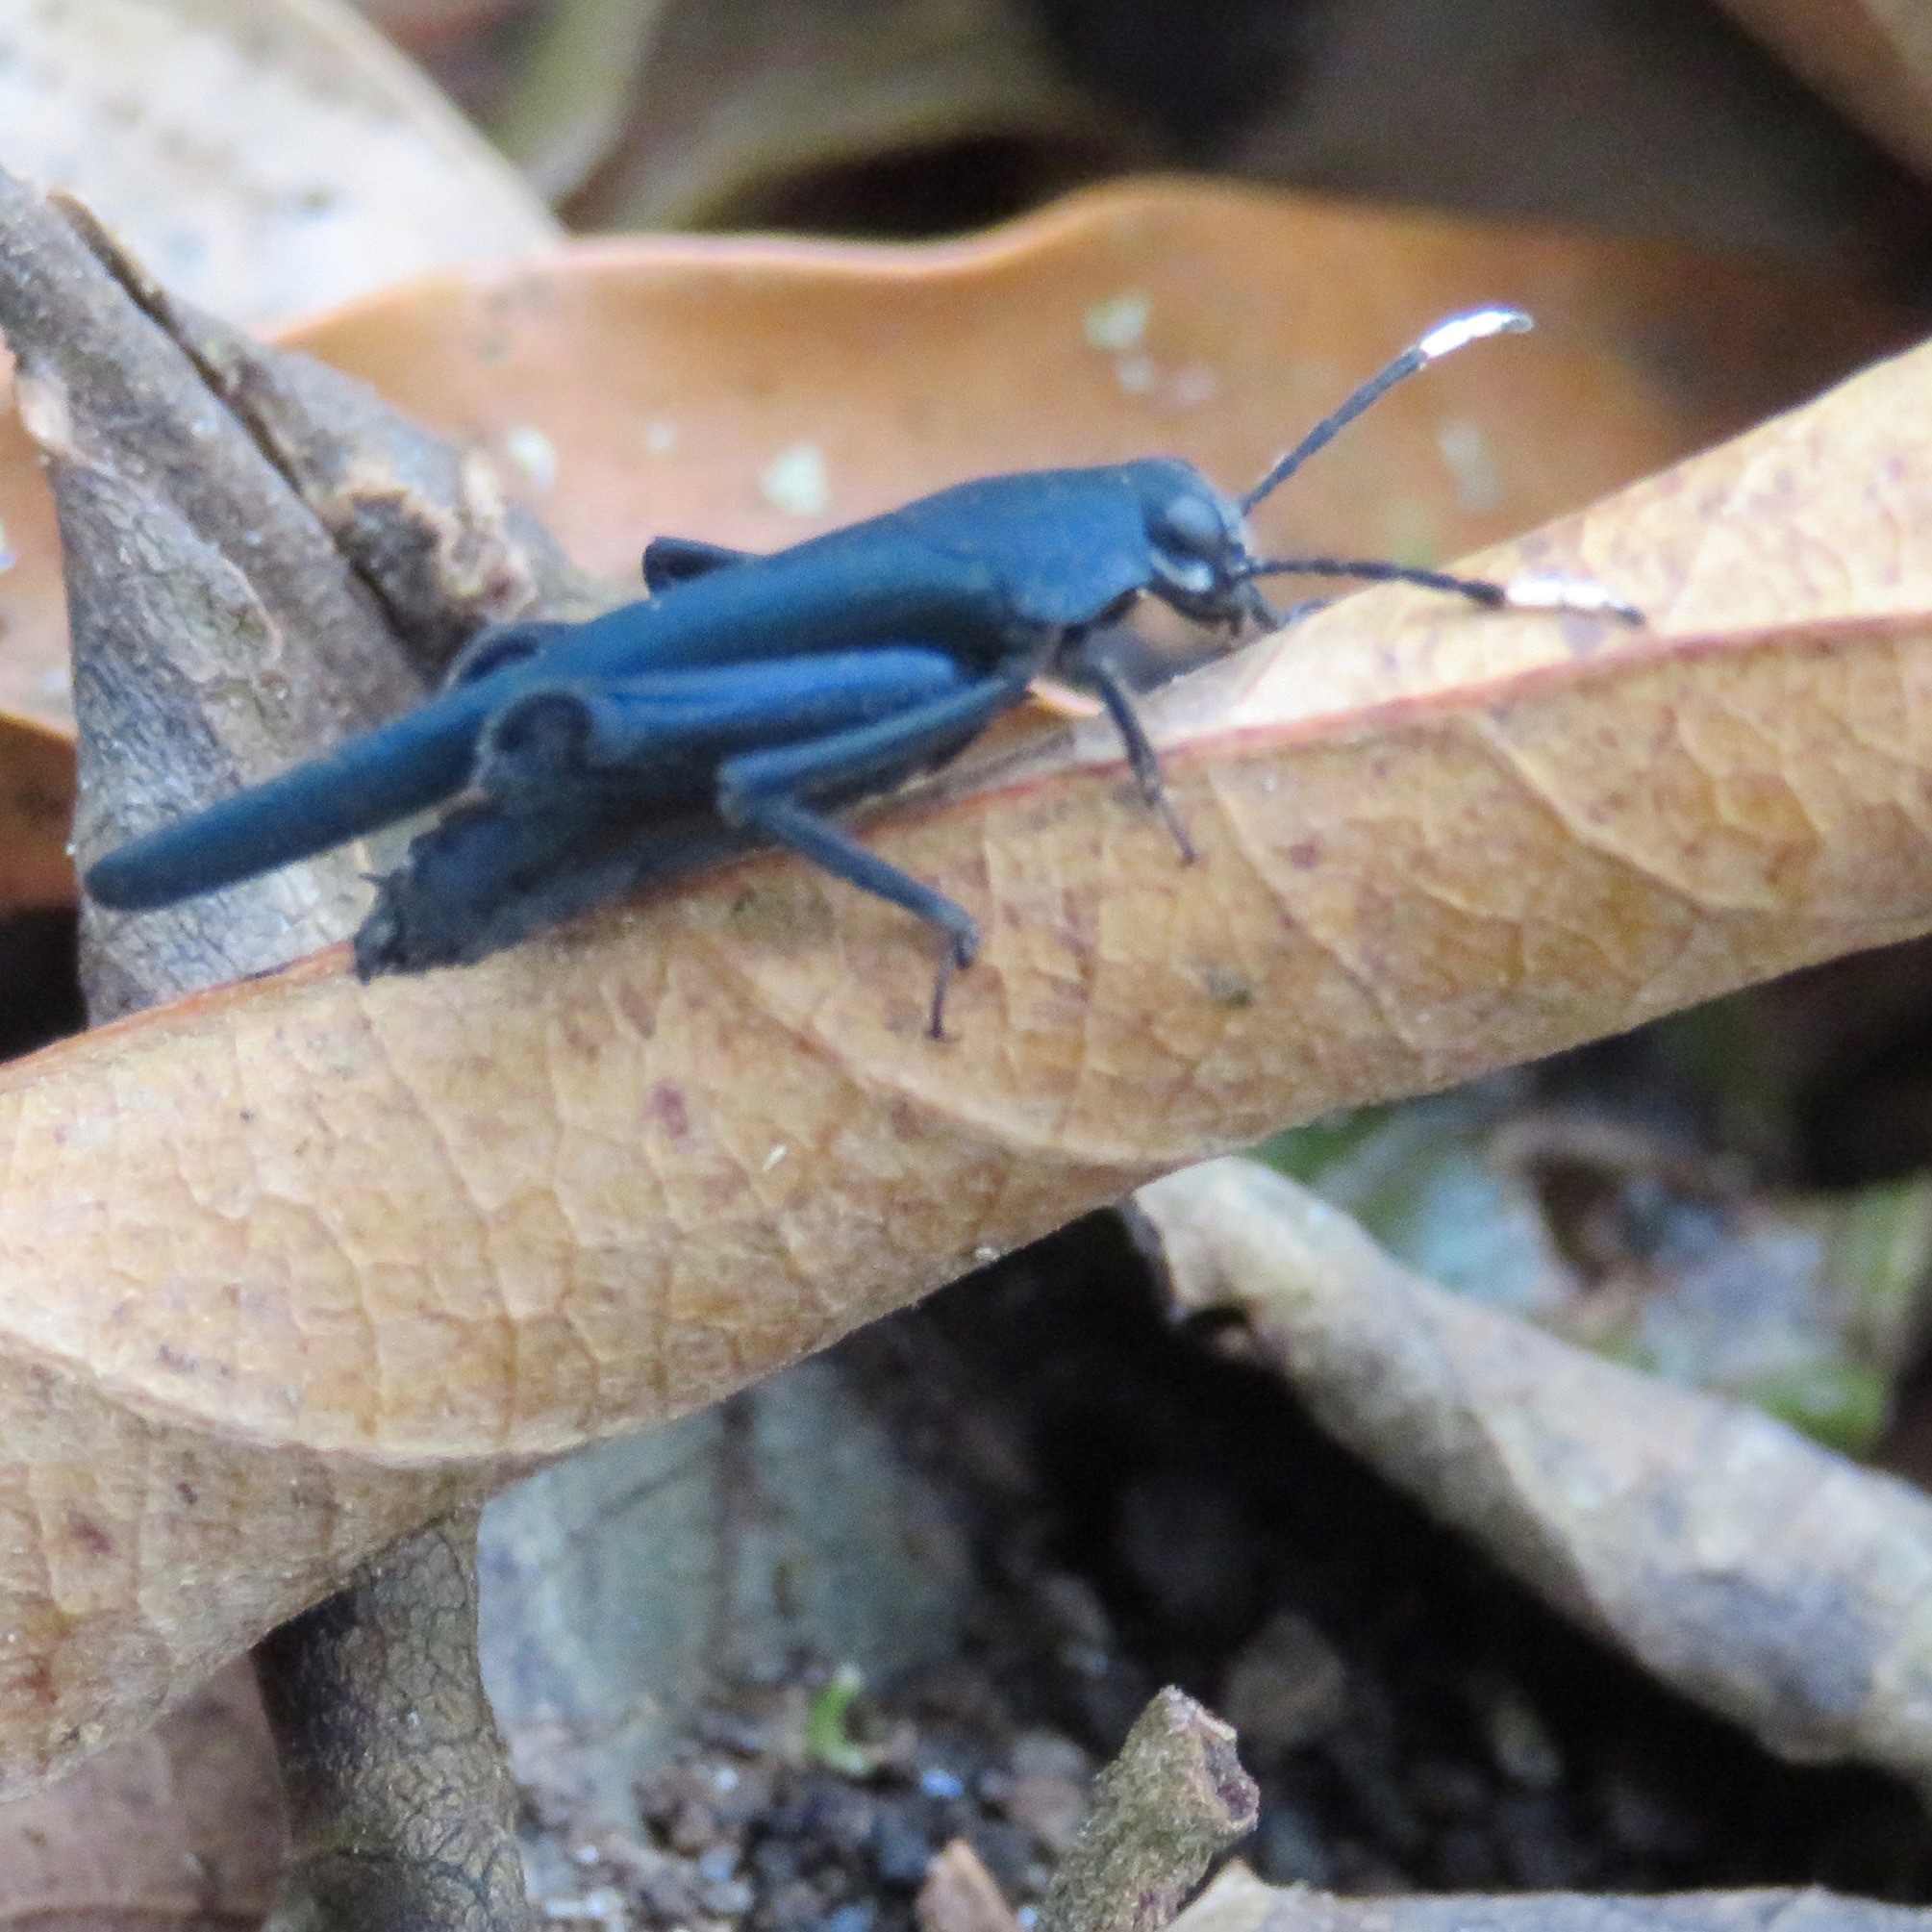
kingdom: Animalia
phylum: Arthropoda
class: Insecta
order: Orthoptera
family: Ripipterygidae
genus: Ripipteryx
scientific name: Ripipteryx forceps
